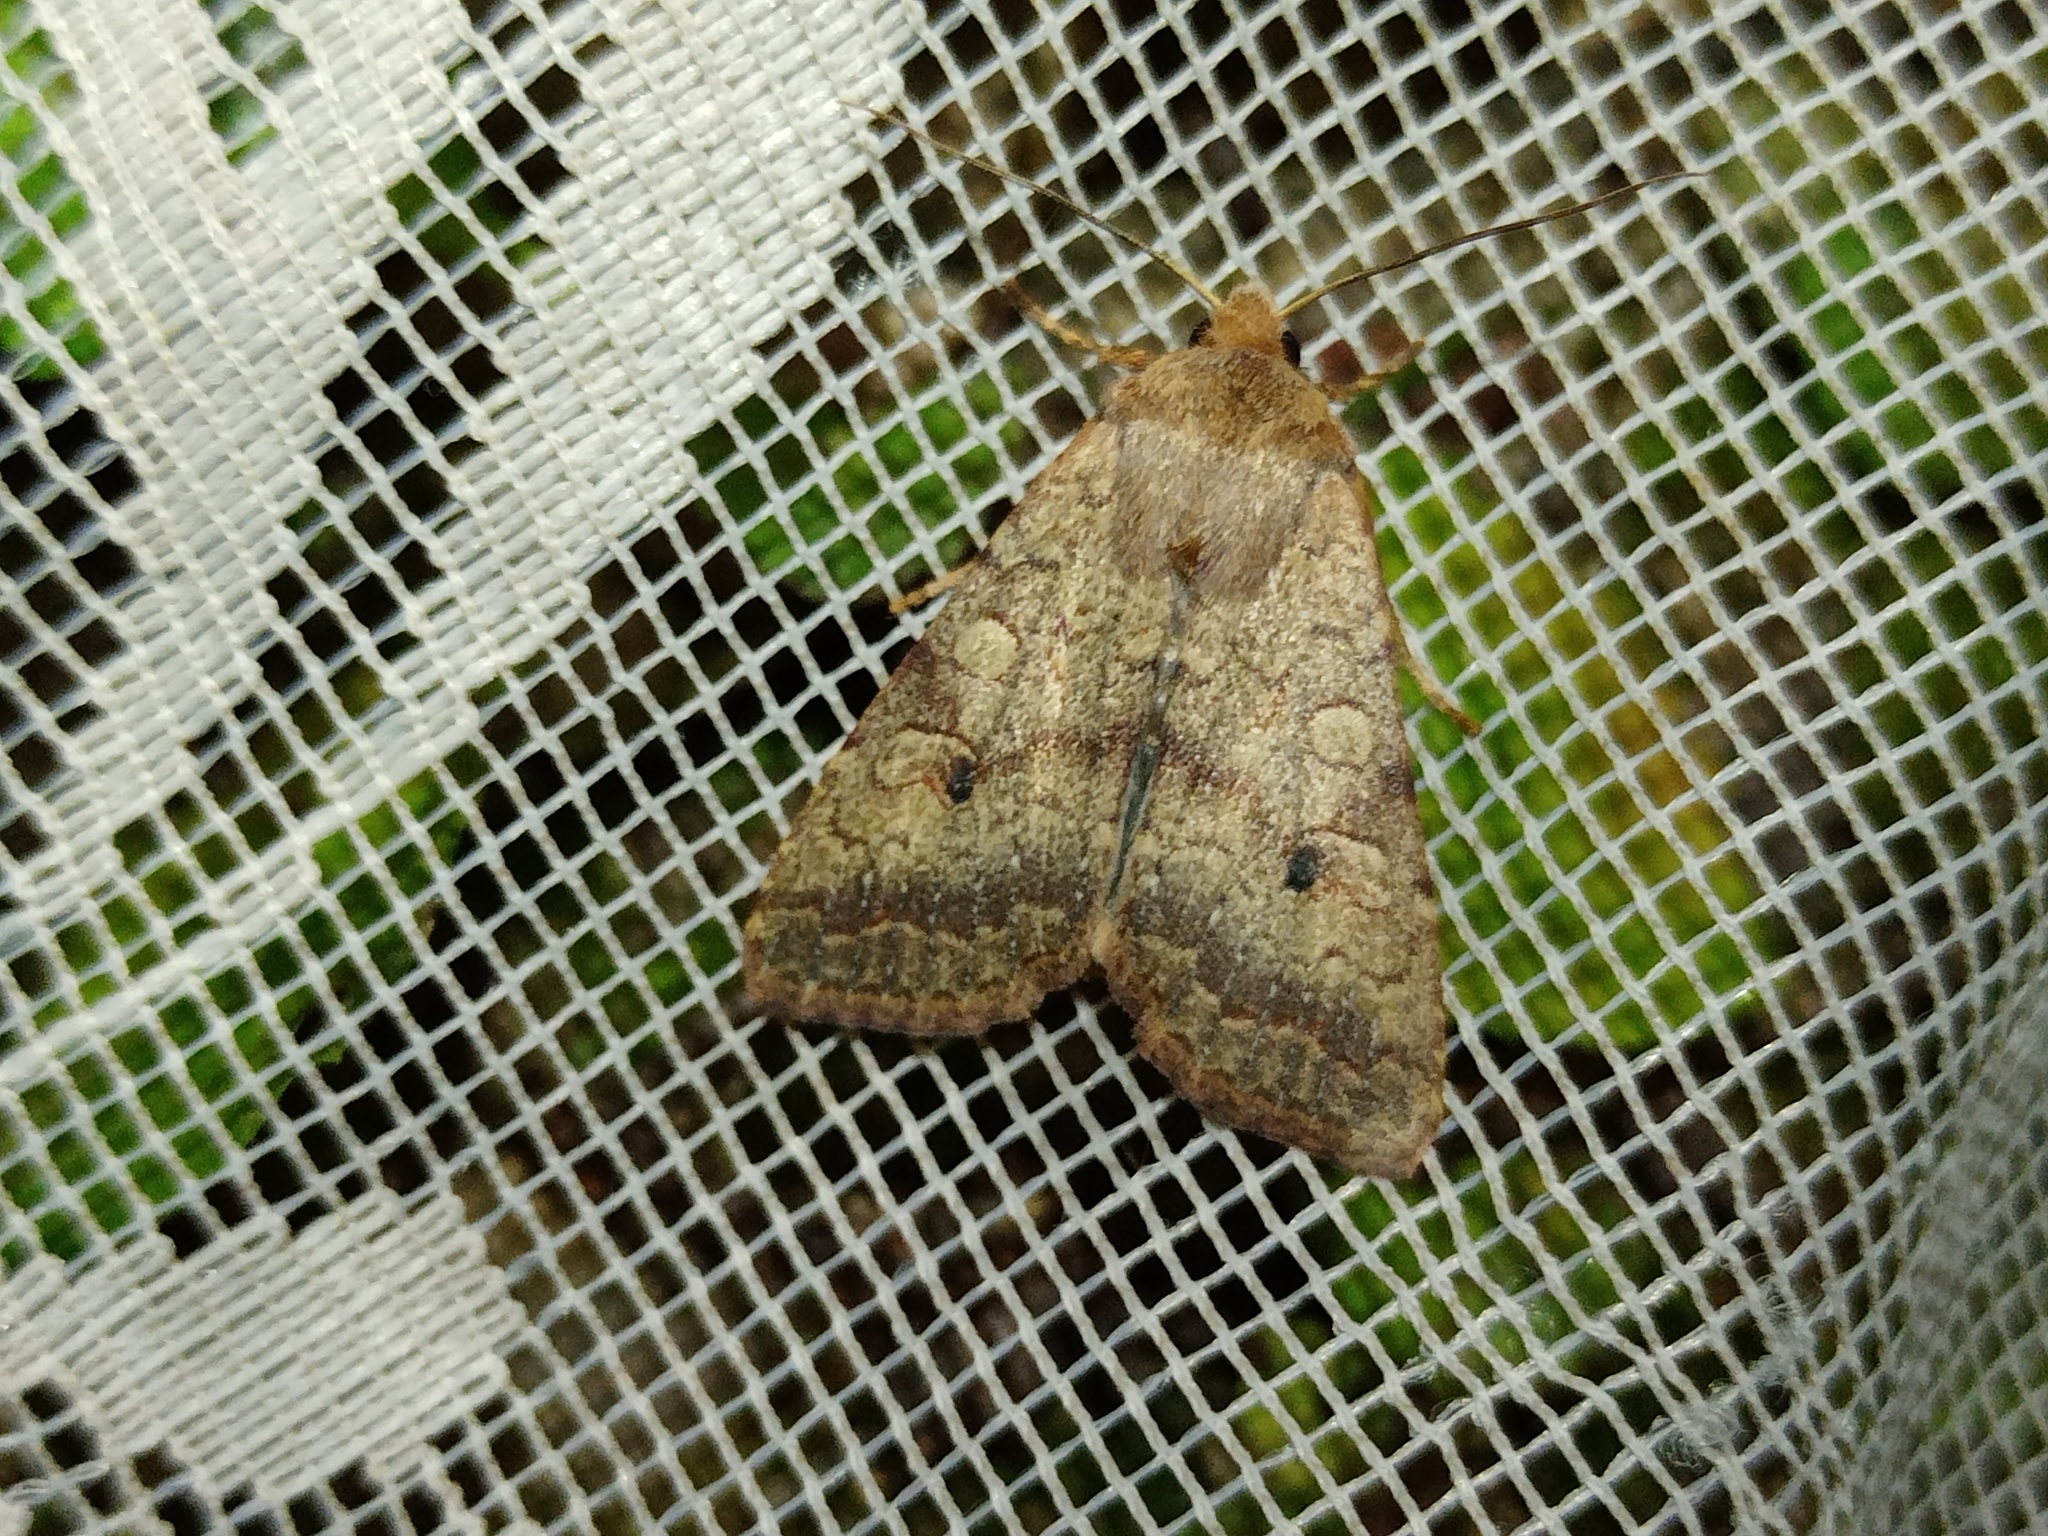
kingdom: Animalia
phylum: Arthropoda
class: Insecta
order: Lepidoptera
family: Noctuidae
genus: Sunira
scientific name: Sunira circellaris
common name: Brick
